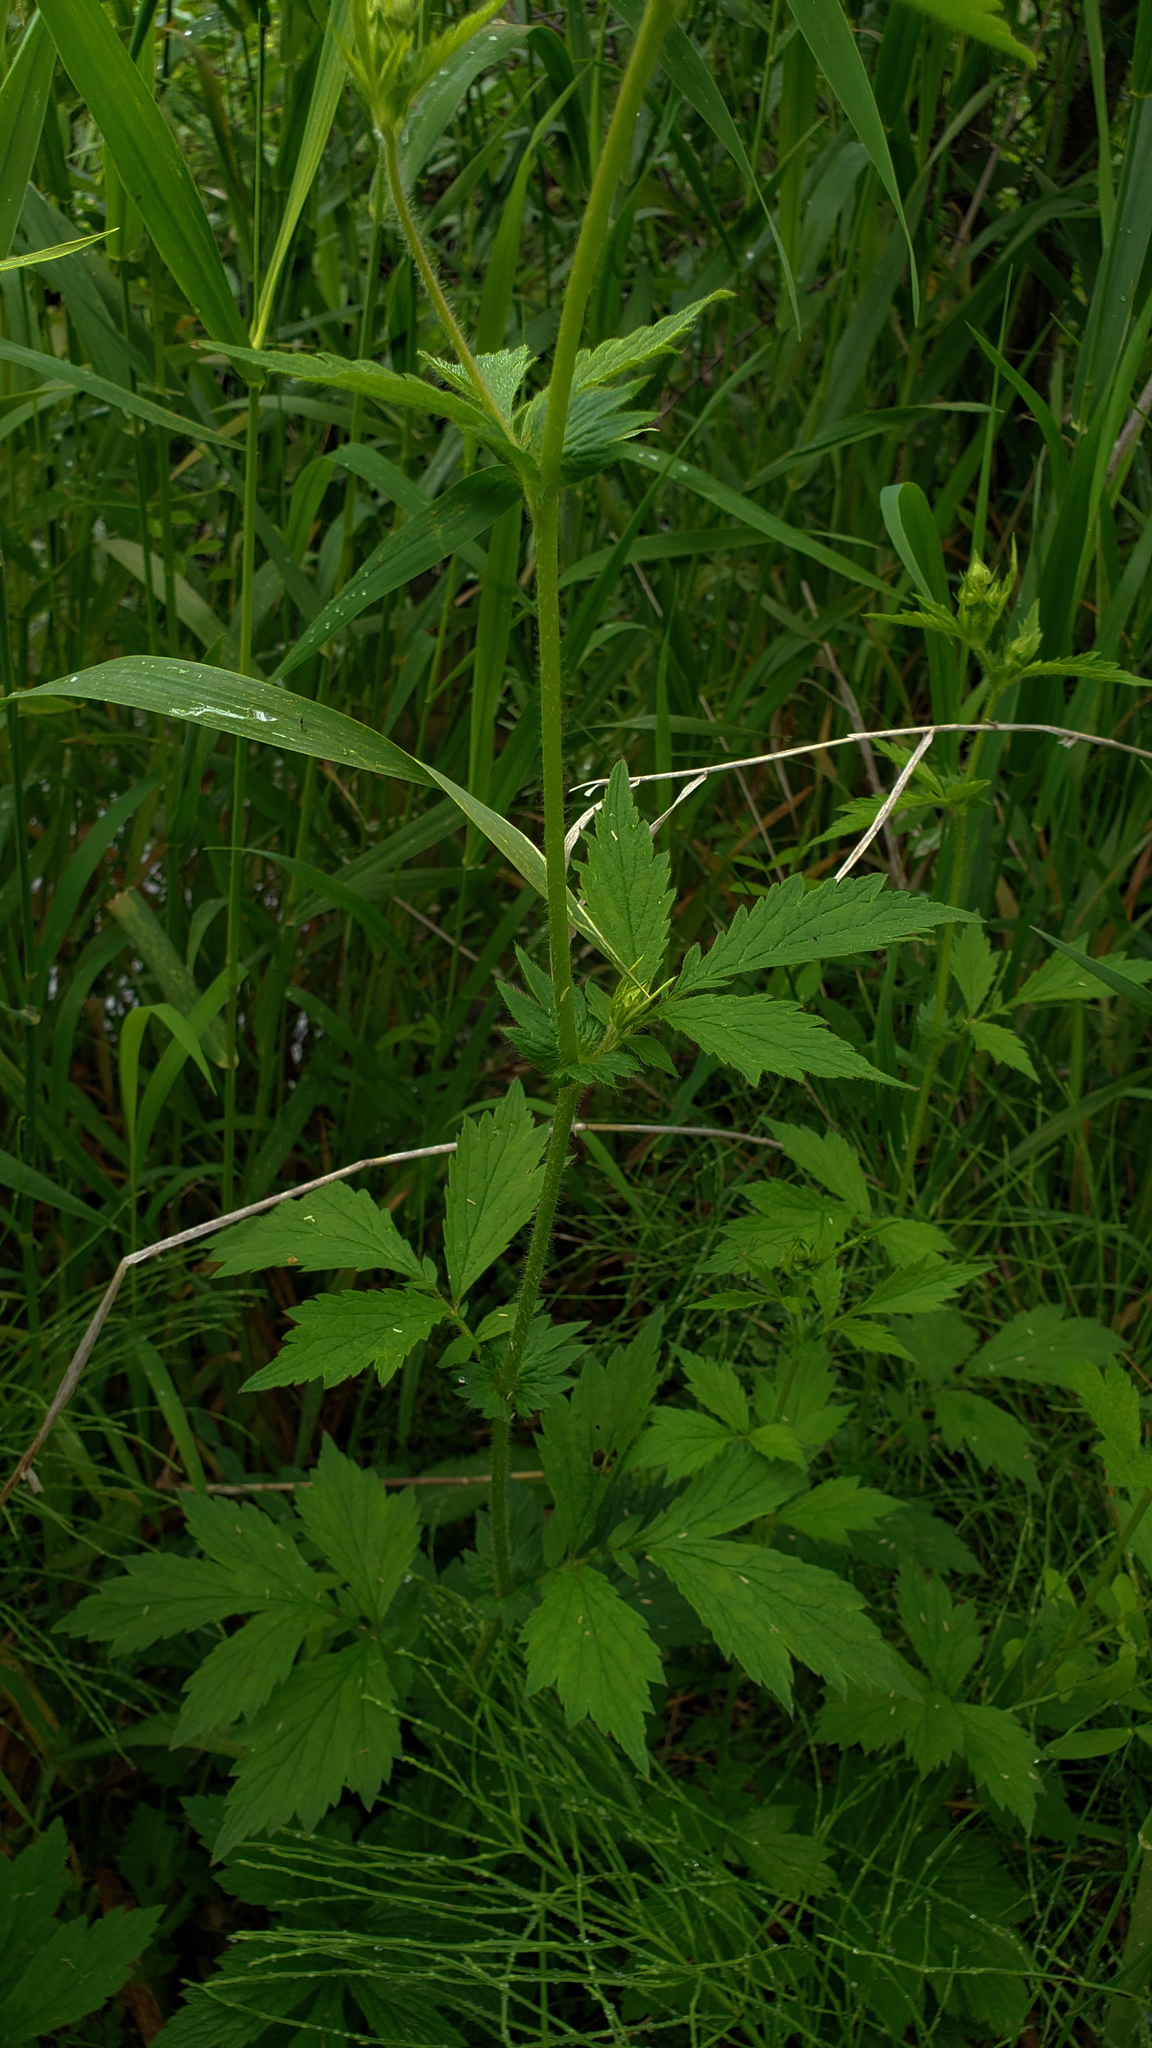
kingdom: Plantae
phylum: Tracheophyta
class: Magnoliopsida
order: Rosales
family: Rosaceae
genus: Geum
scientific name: Geum aleppicum
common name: Yellow avens
